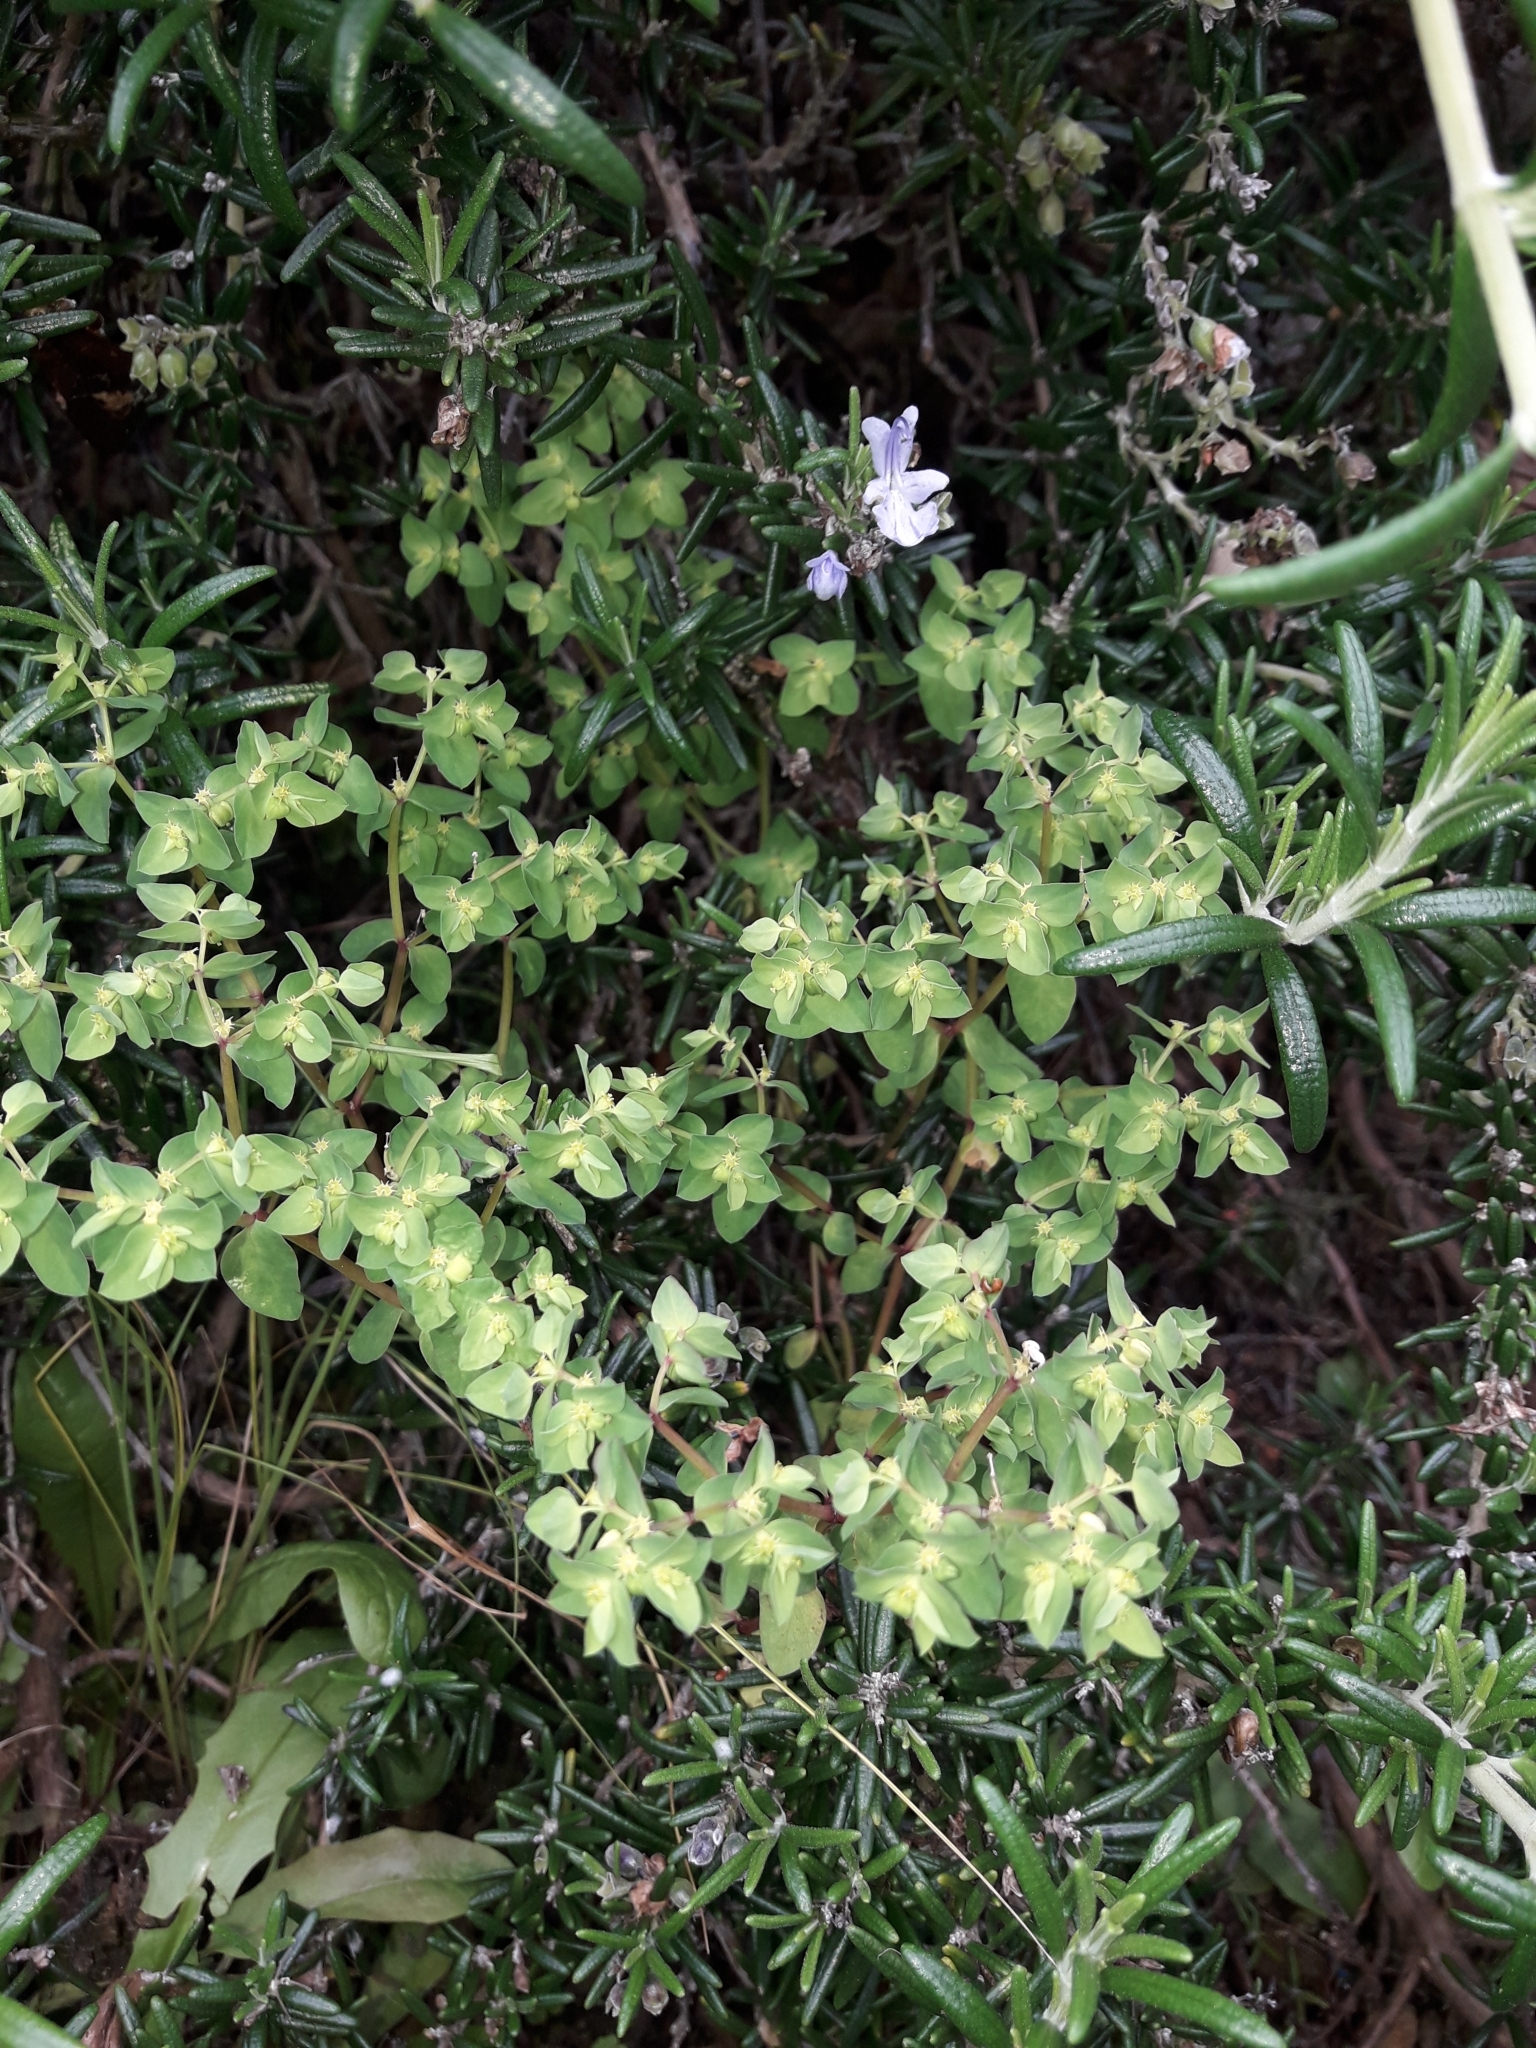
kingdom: Plantae
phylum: Tracheophyta
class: Magnoliopsida
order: Malpighiales
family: Euphorbiaceae
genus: Euphorbia
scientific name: Euphorbia peplus
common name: Petty spurge
